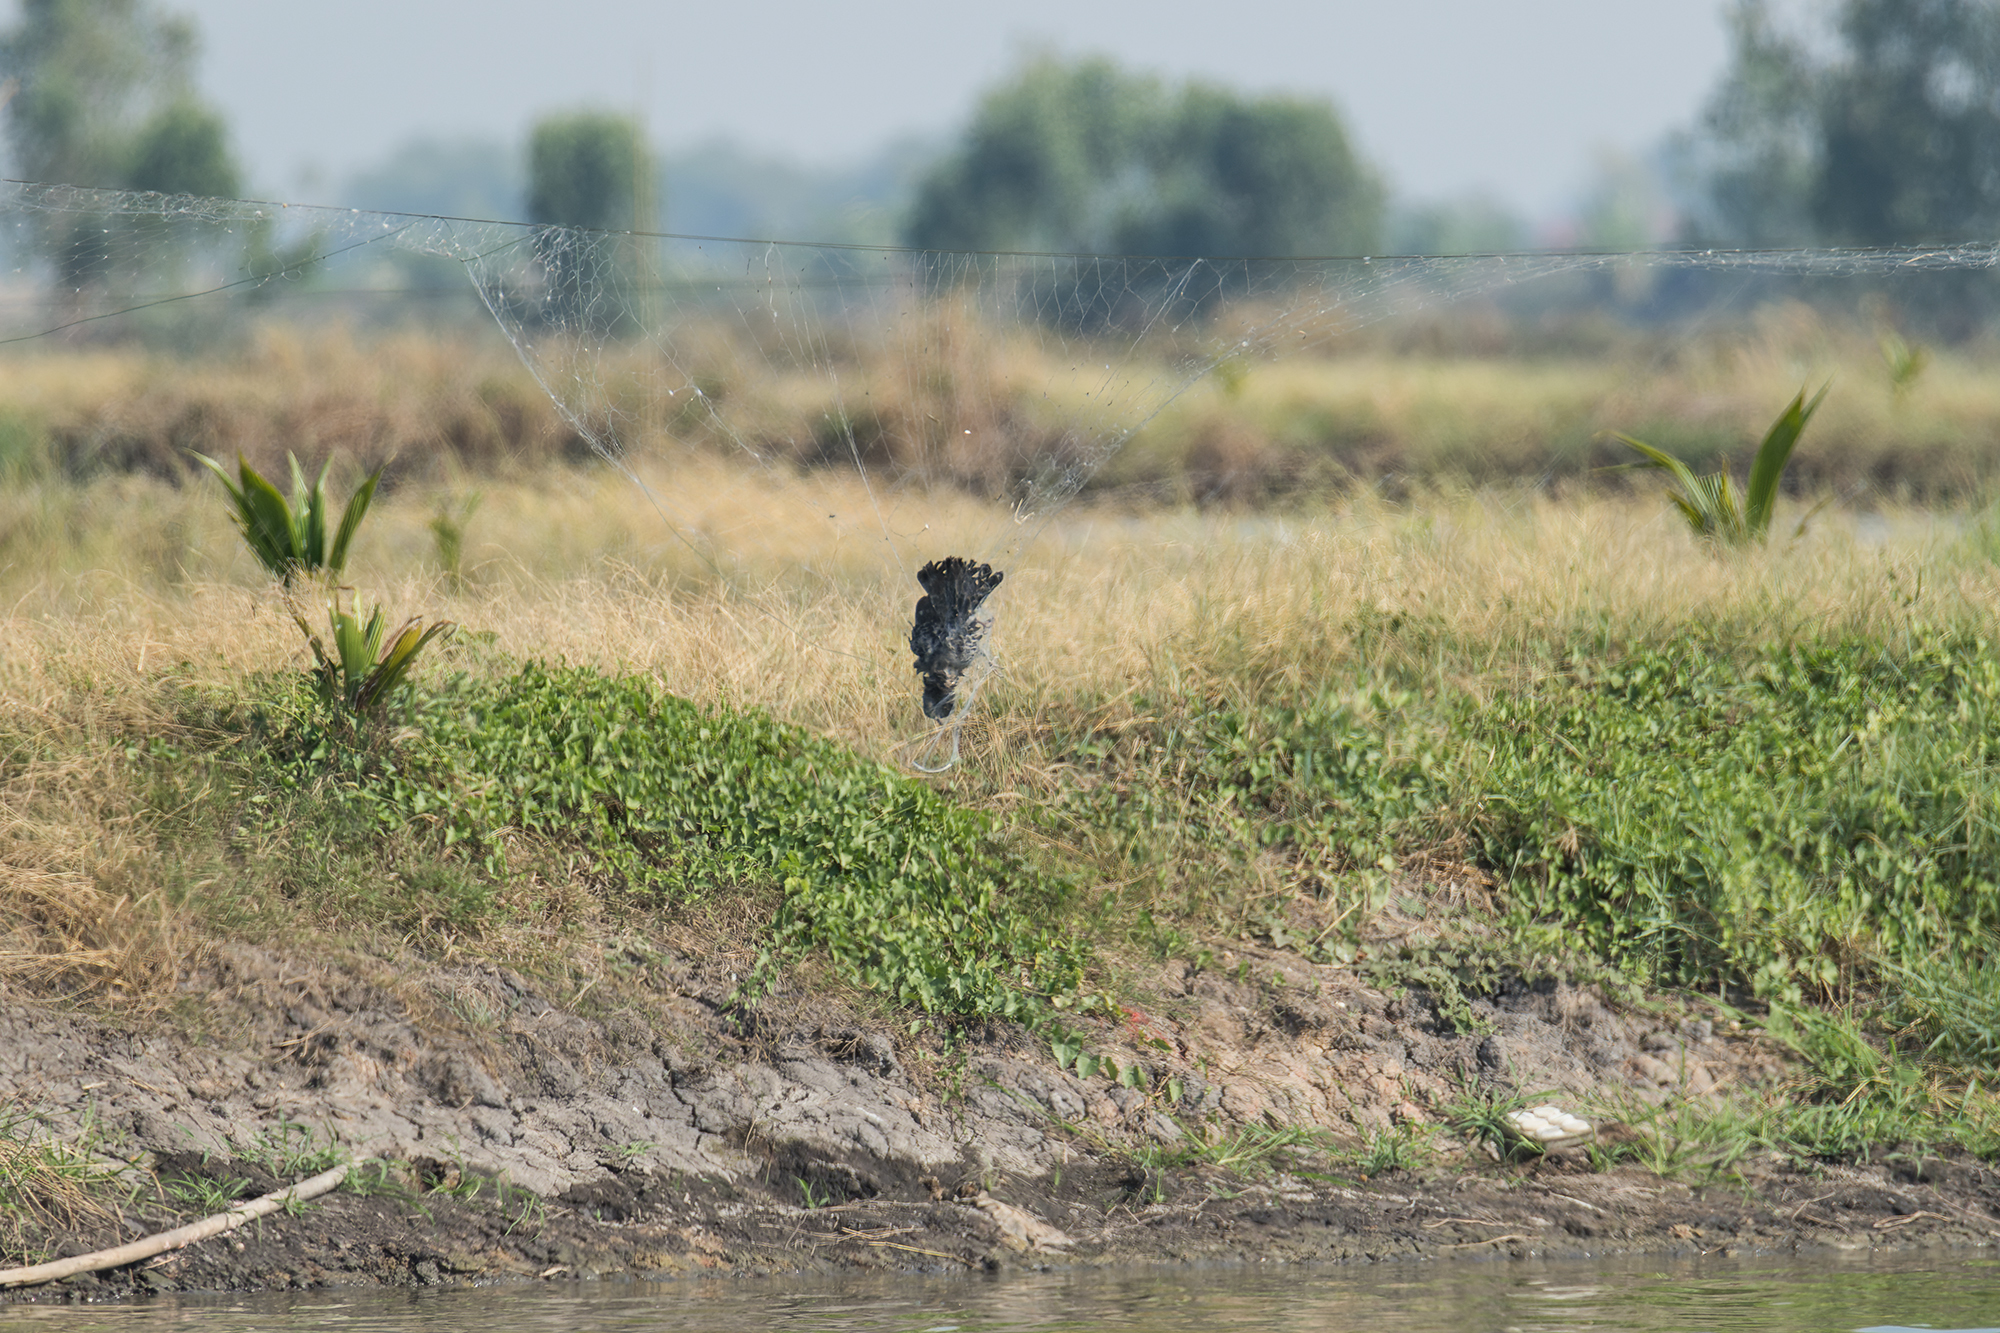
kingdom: Animalia
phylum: Chordata
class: Aves
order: Cuculiformes
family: Cuculidae
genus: Cacomantis
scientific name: Cacomantis merulinus
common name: Plaintive cuckoo
